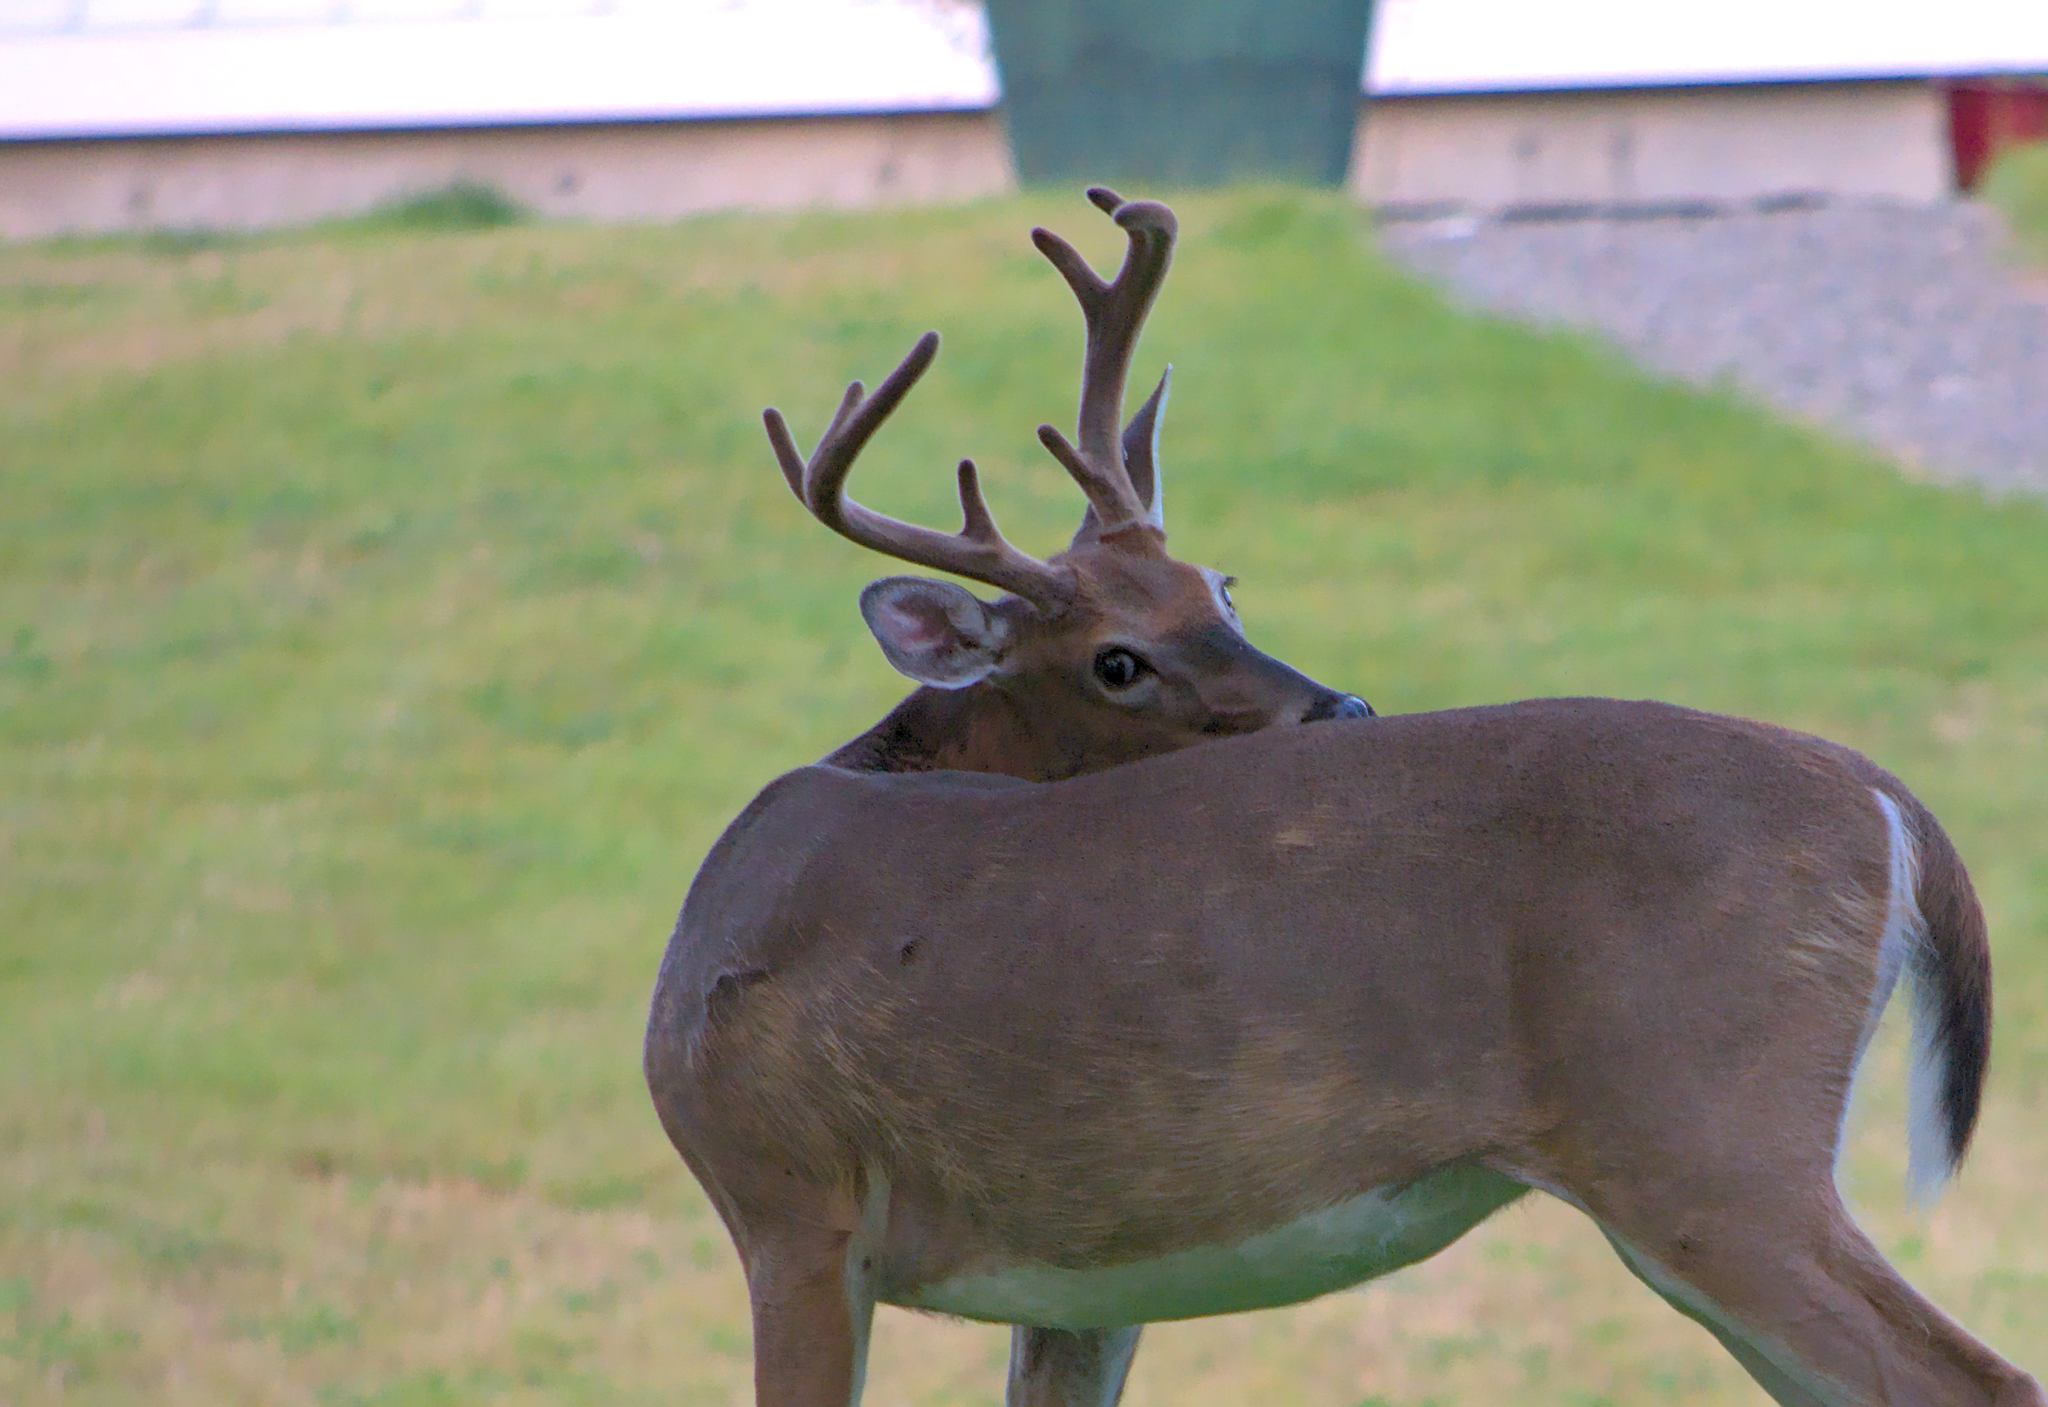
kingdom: Animalia
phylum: Chordata
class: Mammalia
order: Artiodactyla
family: Cervidae
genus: Odocoileus
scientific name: Odocoileus virginianus
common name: White-tailed deer
